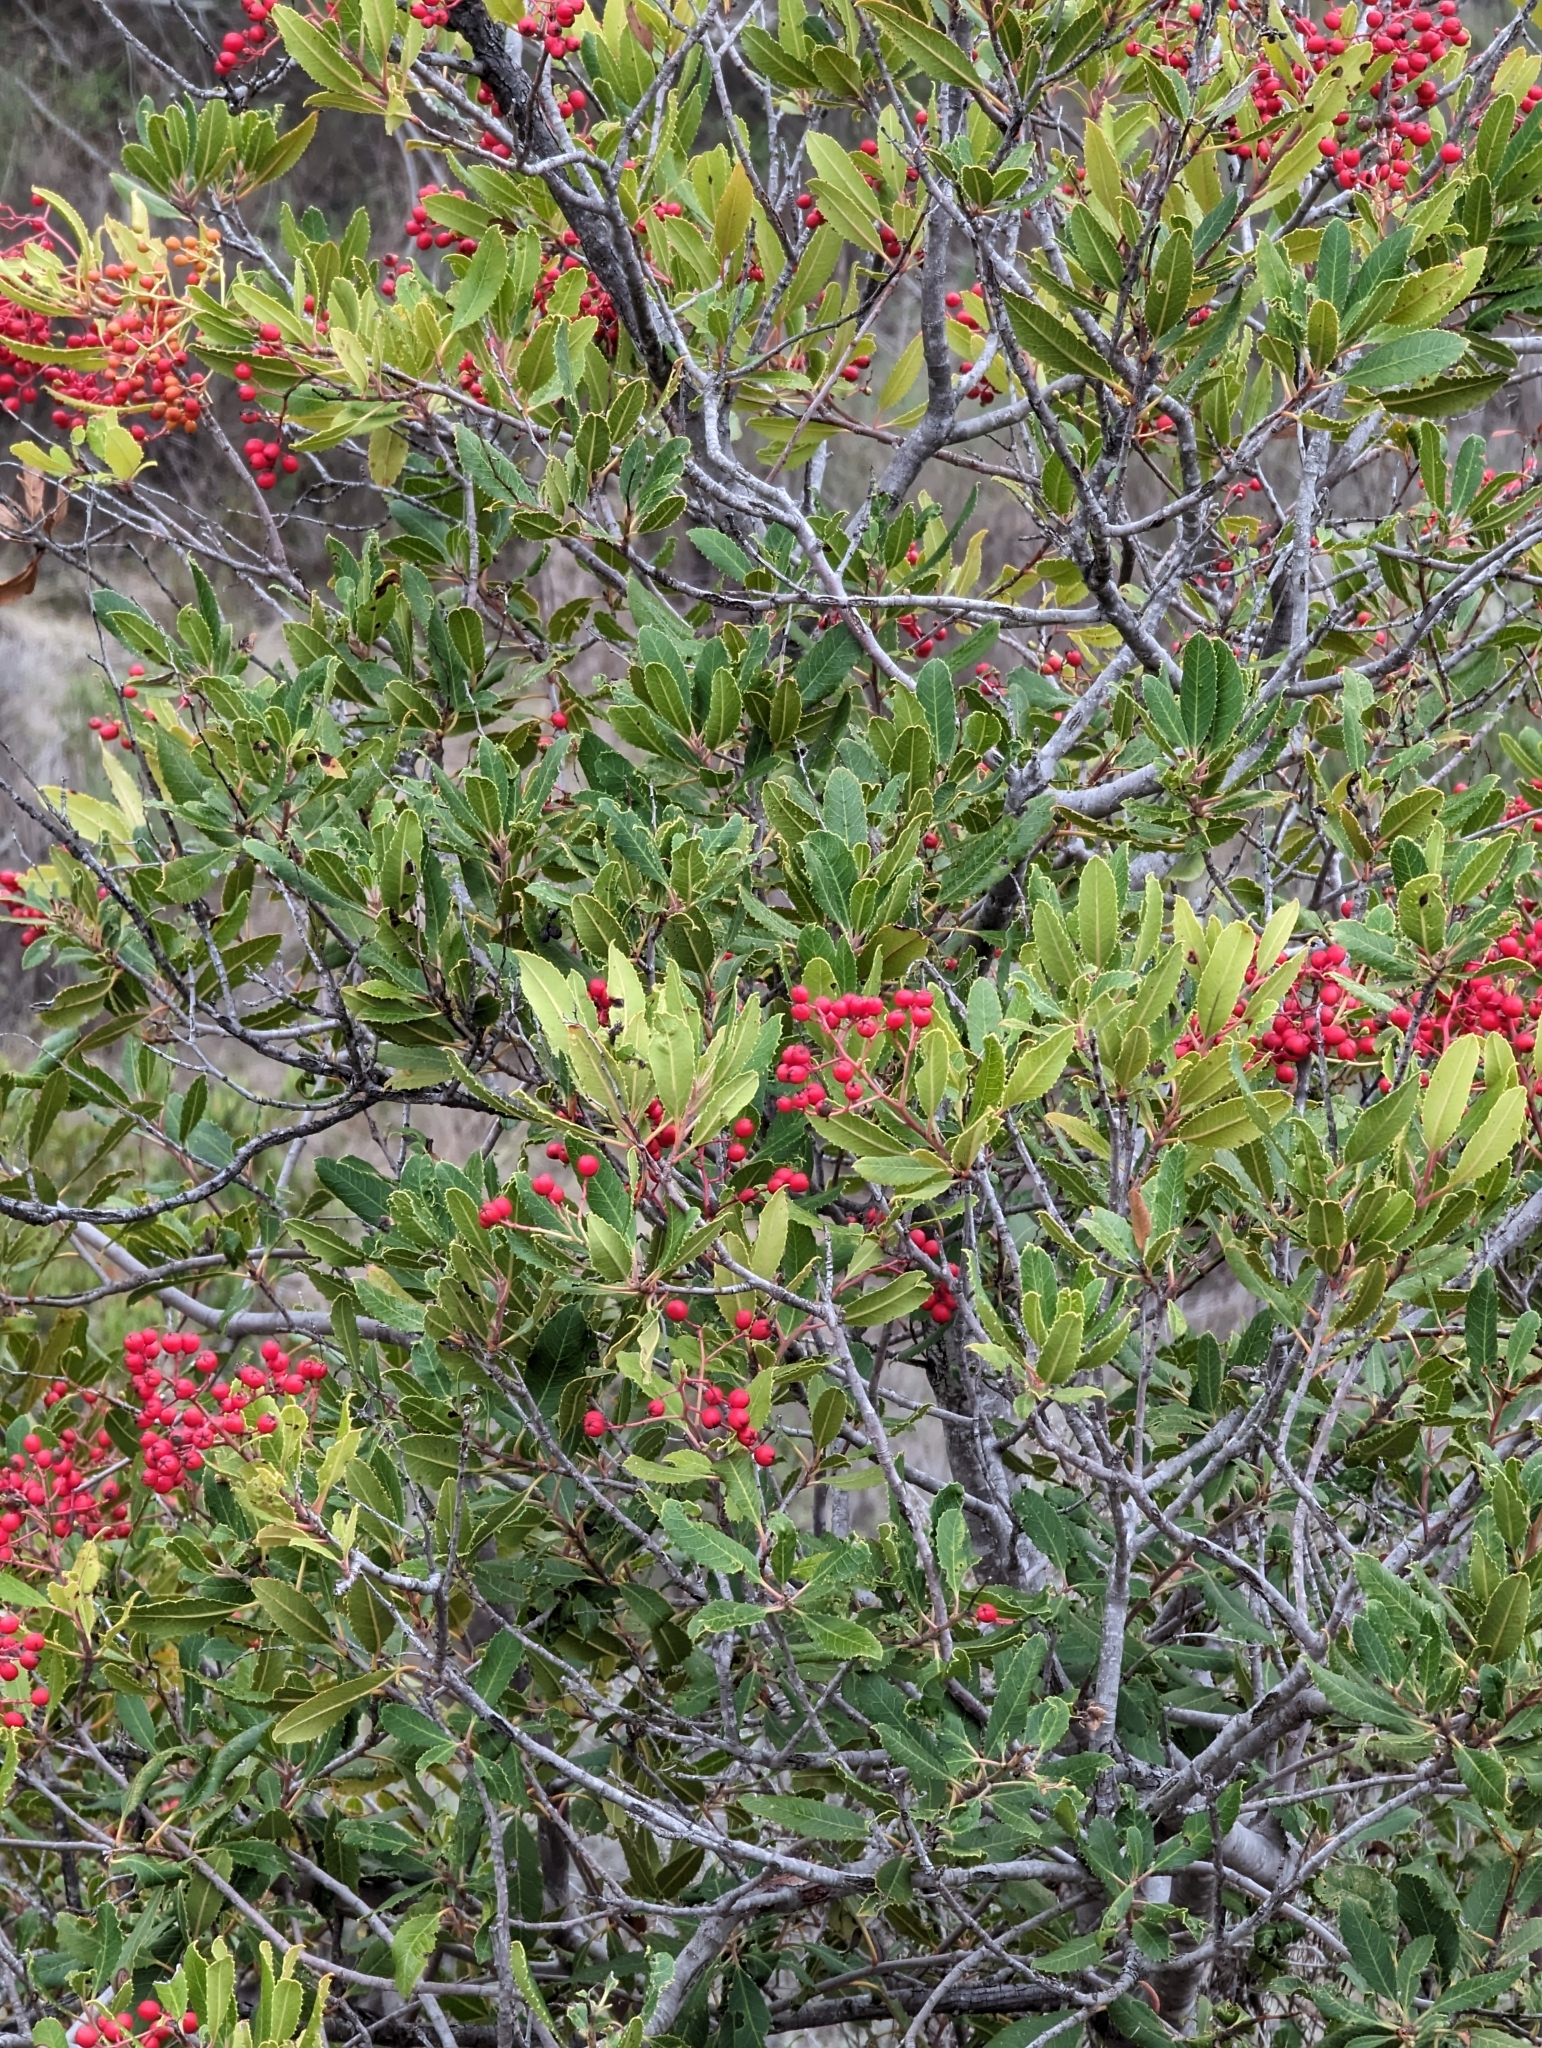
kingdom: Plantae
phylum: Tracheophyta
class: Magnoliopsida
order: Rosales
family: Rosaceae
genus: Heteromeles
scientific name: Heteromeles arbutifolia
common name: California-holly
